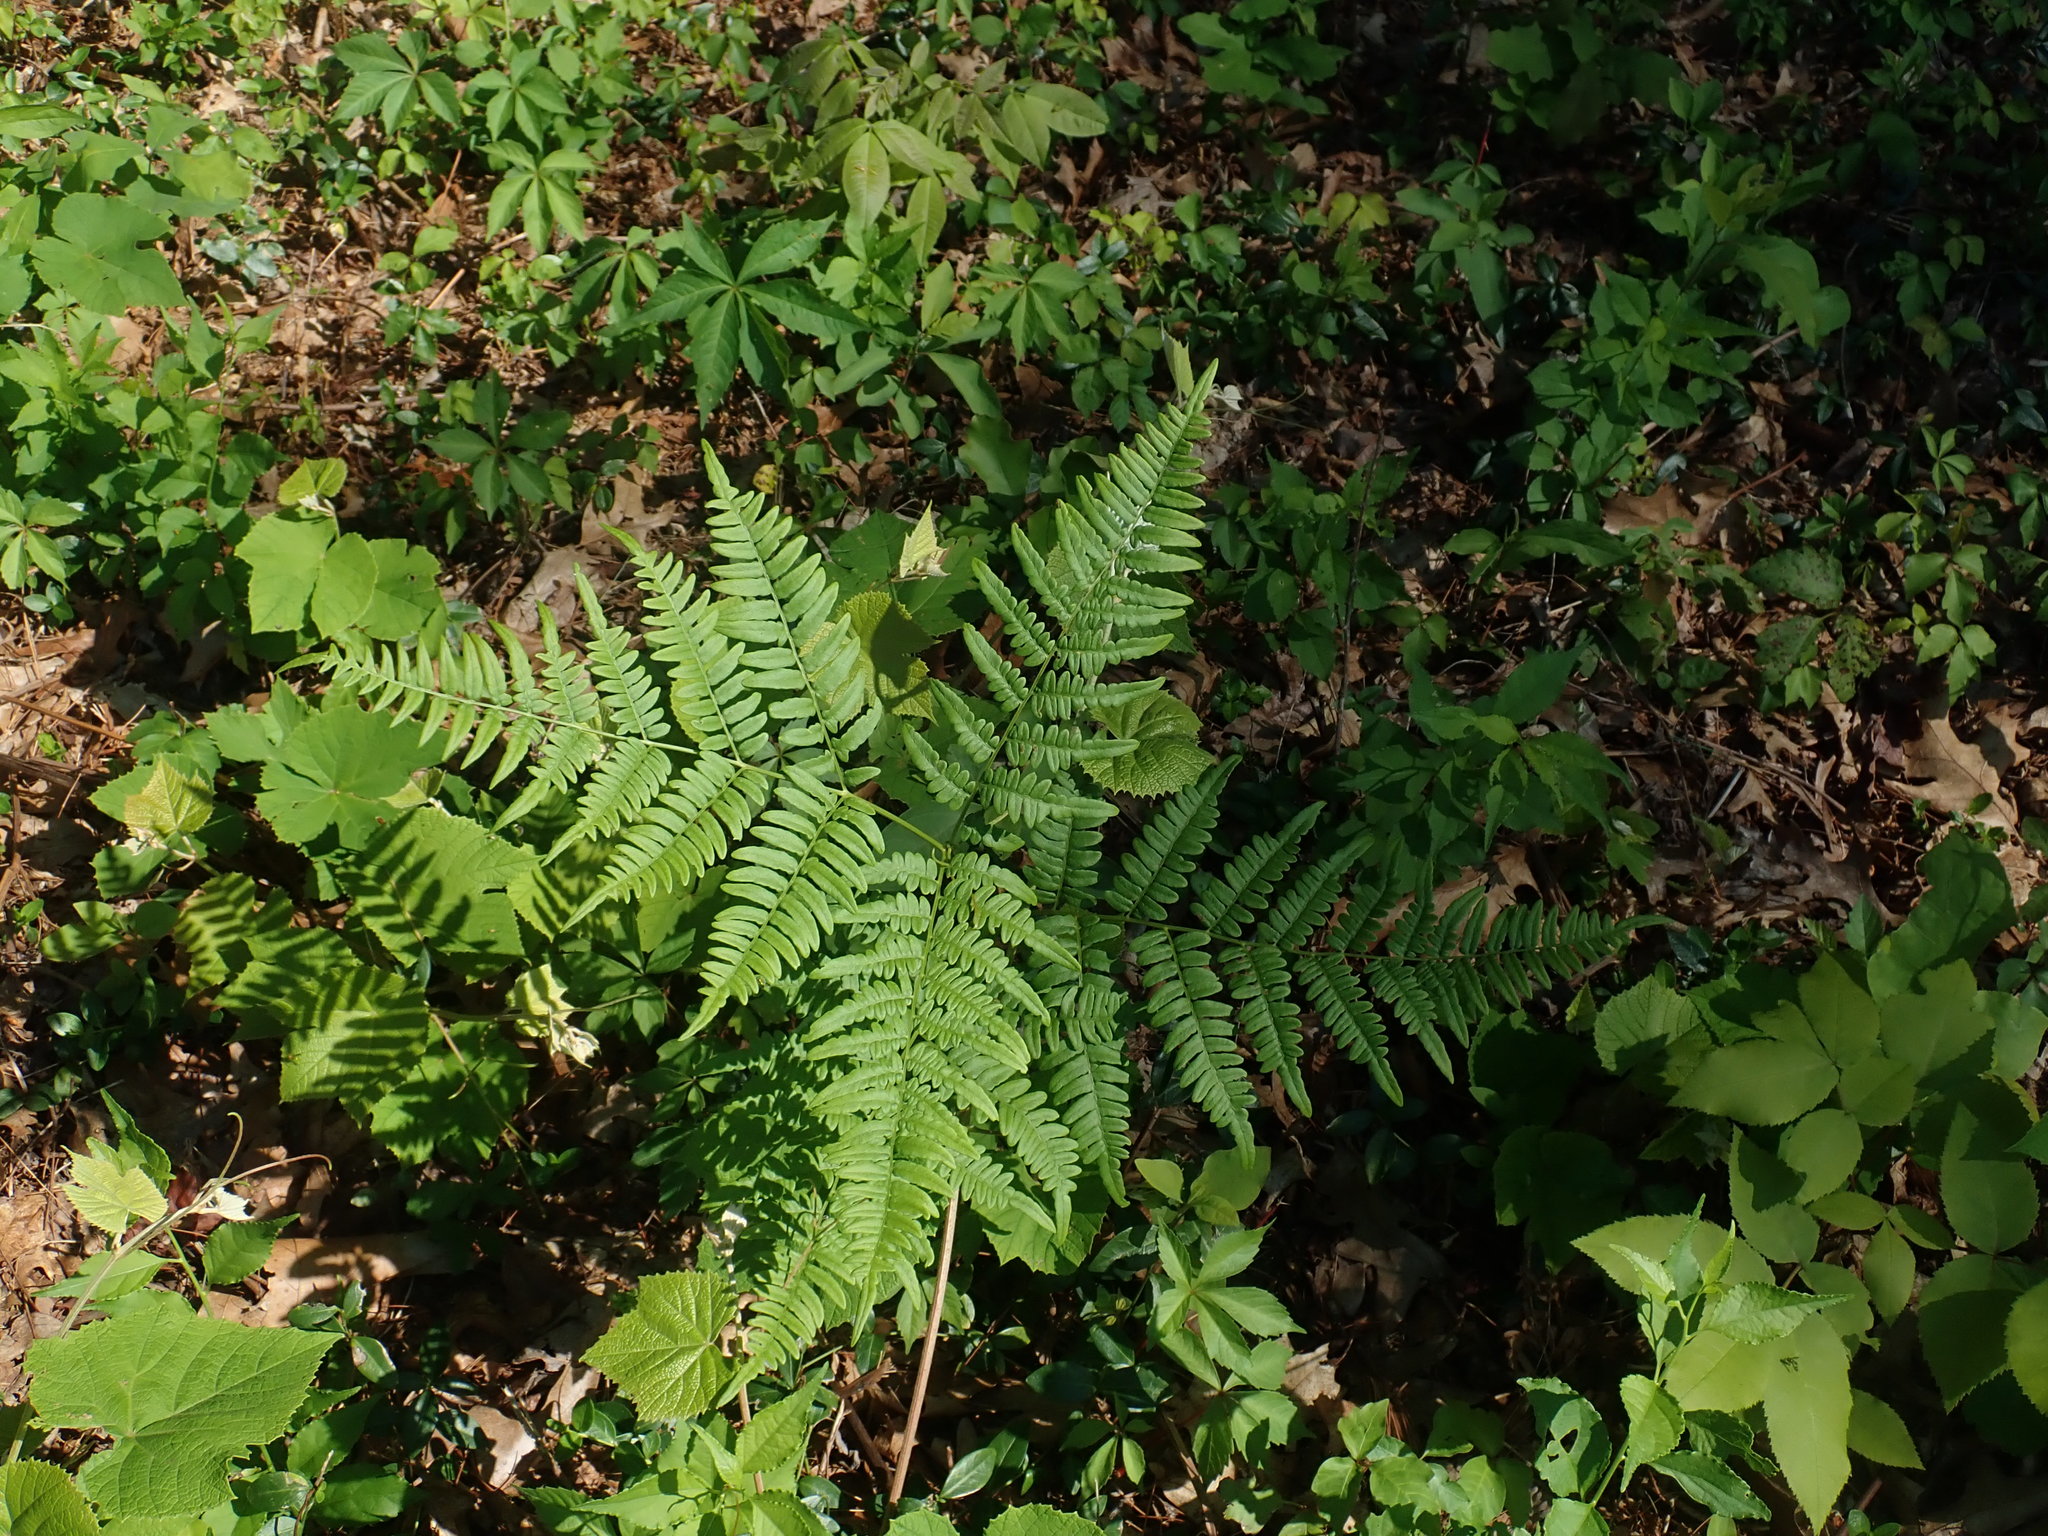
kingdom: Plantae
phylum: Tracheophyta
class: Polypodiopsida
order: Polypodiales
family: Dennstaedtiaceae
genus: Pteridium
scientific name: Pteridium aquilinum
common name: Bracken
